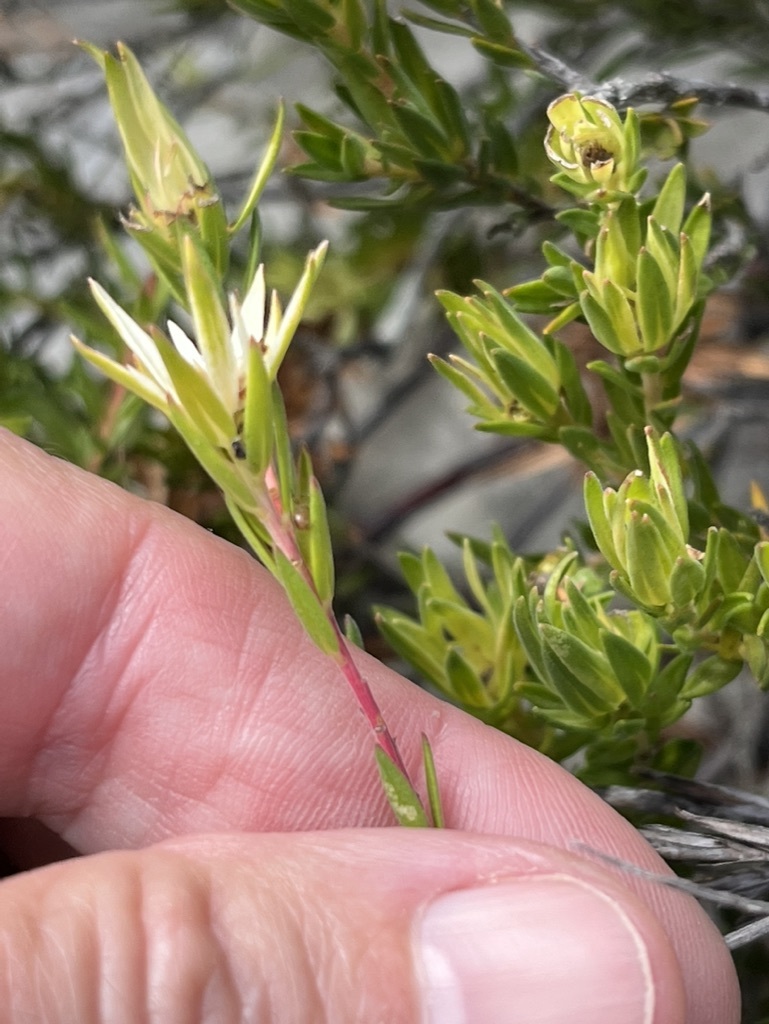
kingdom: Plantae
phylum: Tracheophyta
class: Magnoliopsida
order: Sapindales
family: Rutaceae
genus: Euchaetis
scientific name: Euchaetis longibracteata
